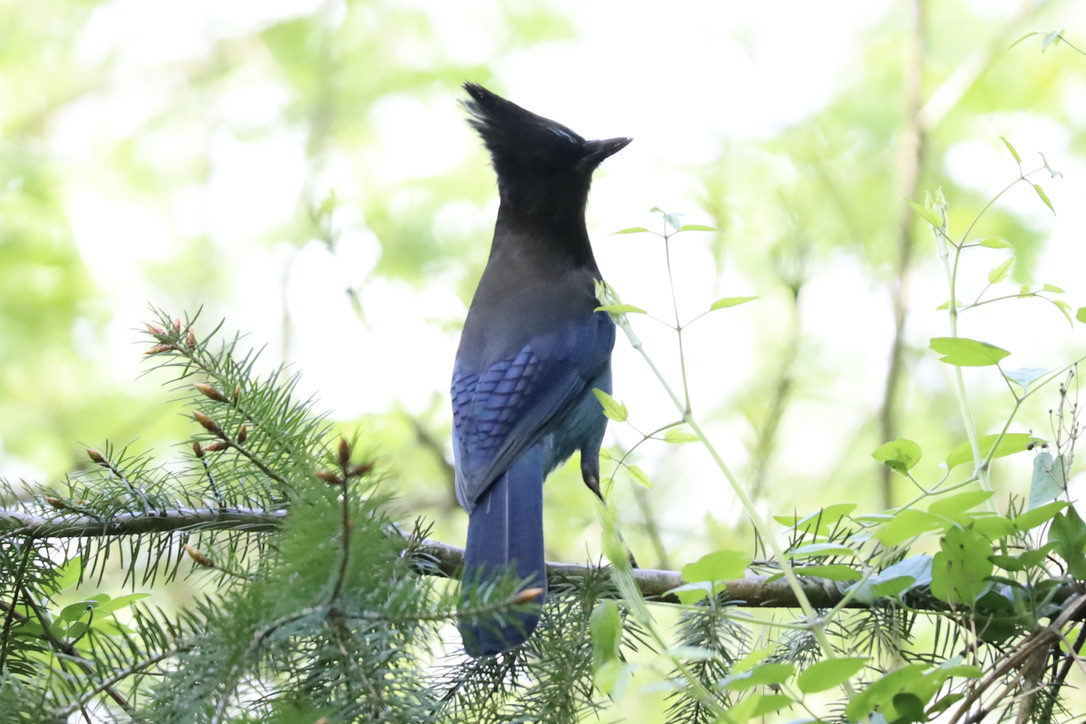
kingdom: Animalia
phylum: Chordata
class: Aves
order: Passeriformes
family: Corvidae
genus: Cyanocitta
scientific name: Cyanocitta stelleri
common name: Steller's jay
